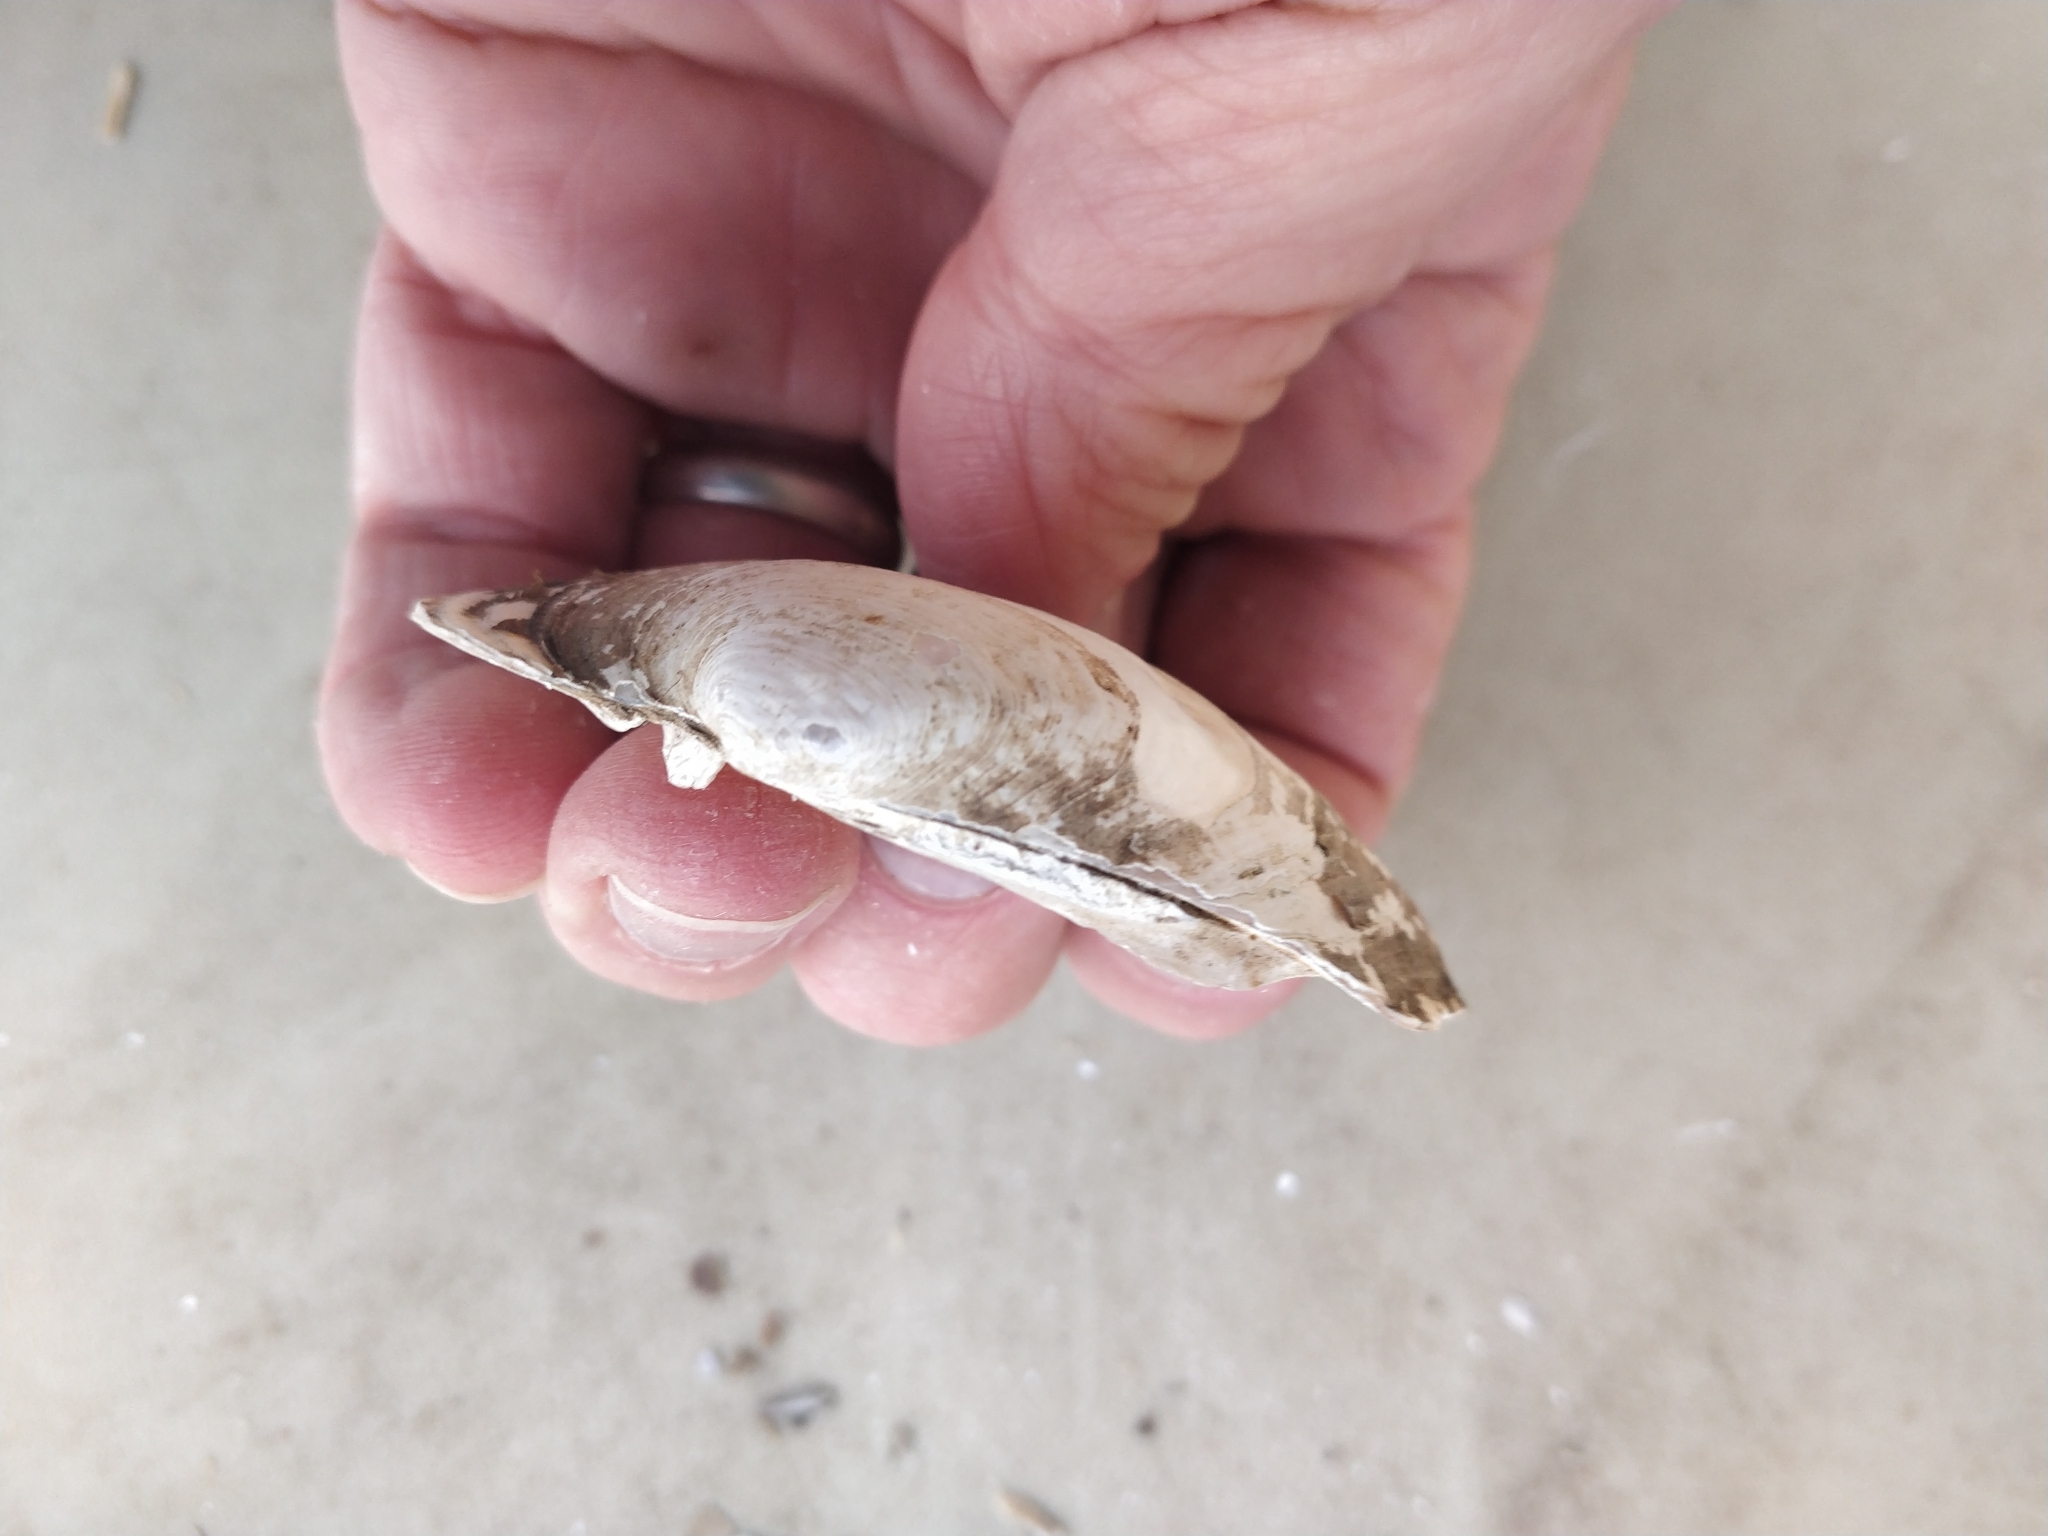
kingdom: Animalia
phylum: Mollusca
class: Bivalvia
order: Unionida
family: Unionidae
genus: Lampsilis
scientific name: Lampsilis cardium
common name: Plain pocketbook
